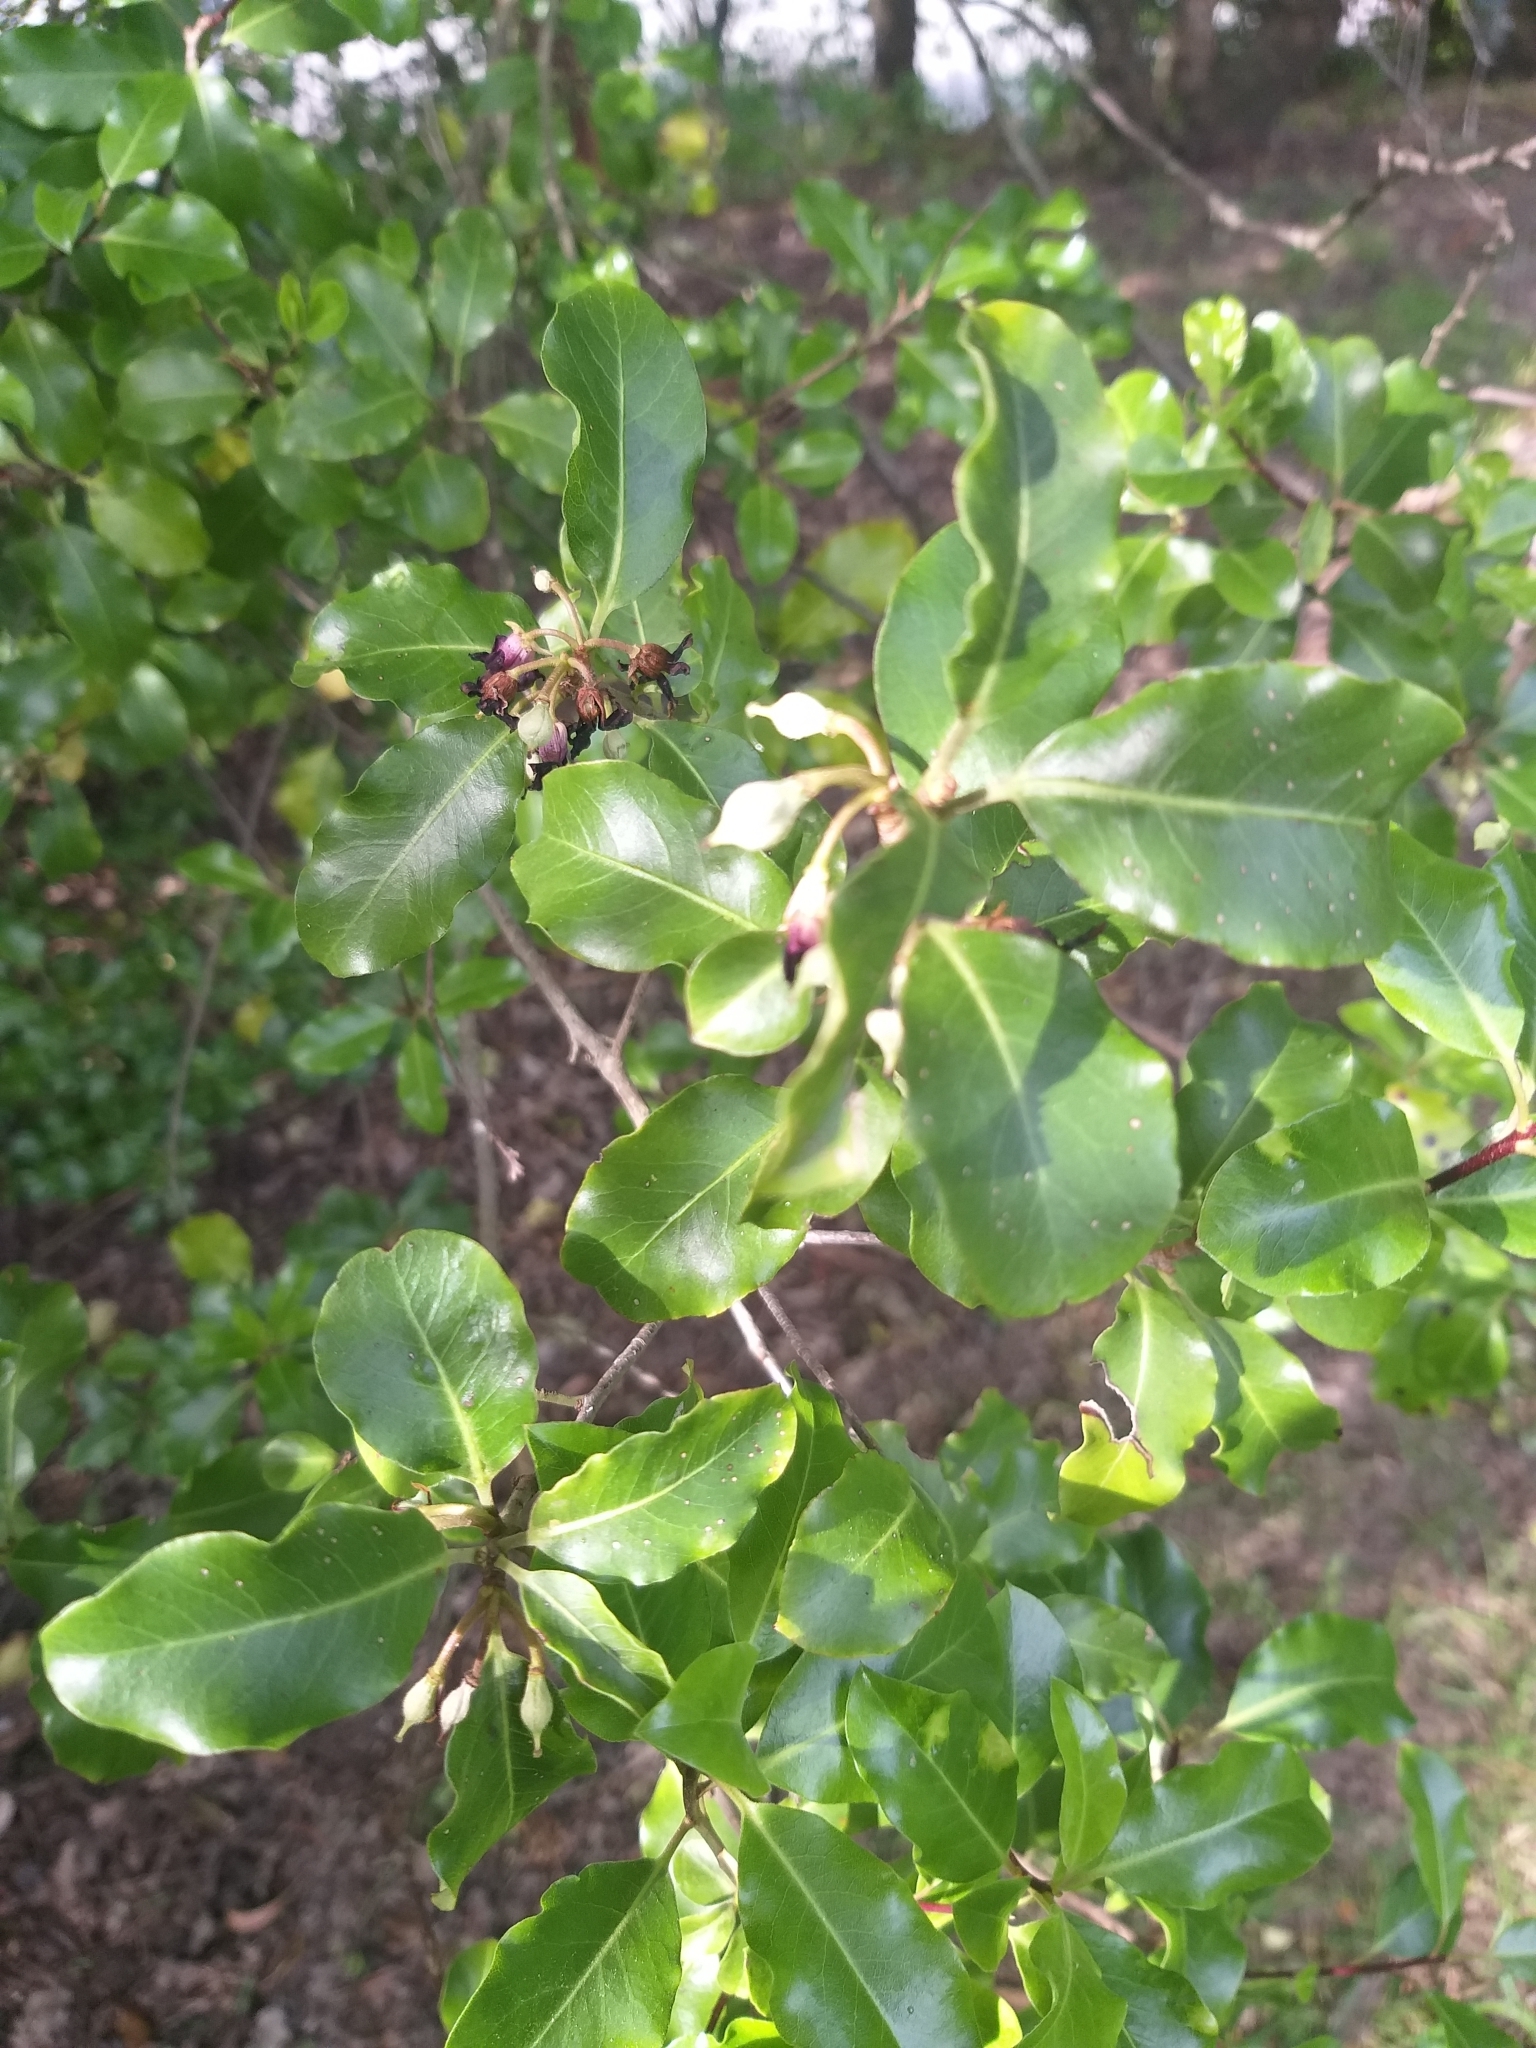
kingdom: Plantae
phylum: Tracheophyta
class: Magnoliopsida
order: Apiales
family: Pittosporaceae
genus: Pittosporum
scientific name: Pittosporum tenuifolium
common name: Kohuhu
